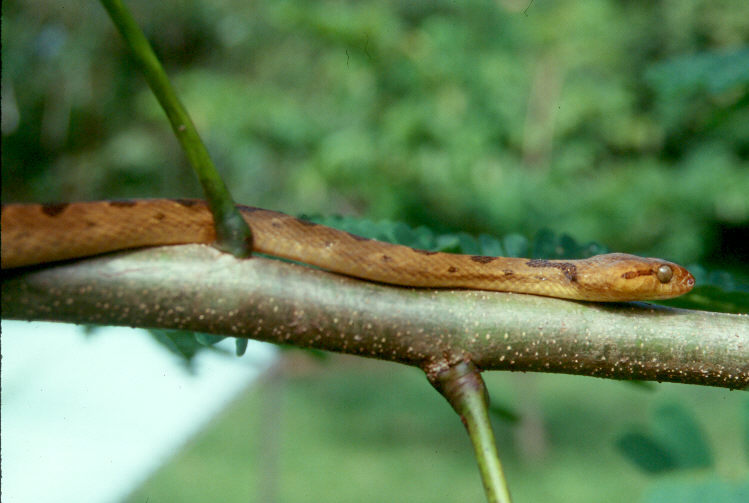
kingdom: Animalia
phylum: Chordata
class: Squamata
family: Colubridae
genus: Leptodeira
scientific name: Leptodeira septentrionalis
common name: Northern cat-eyed snake
